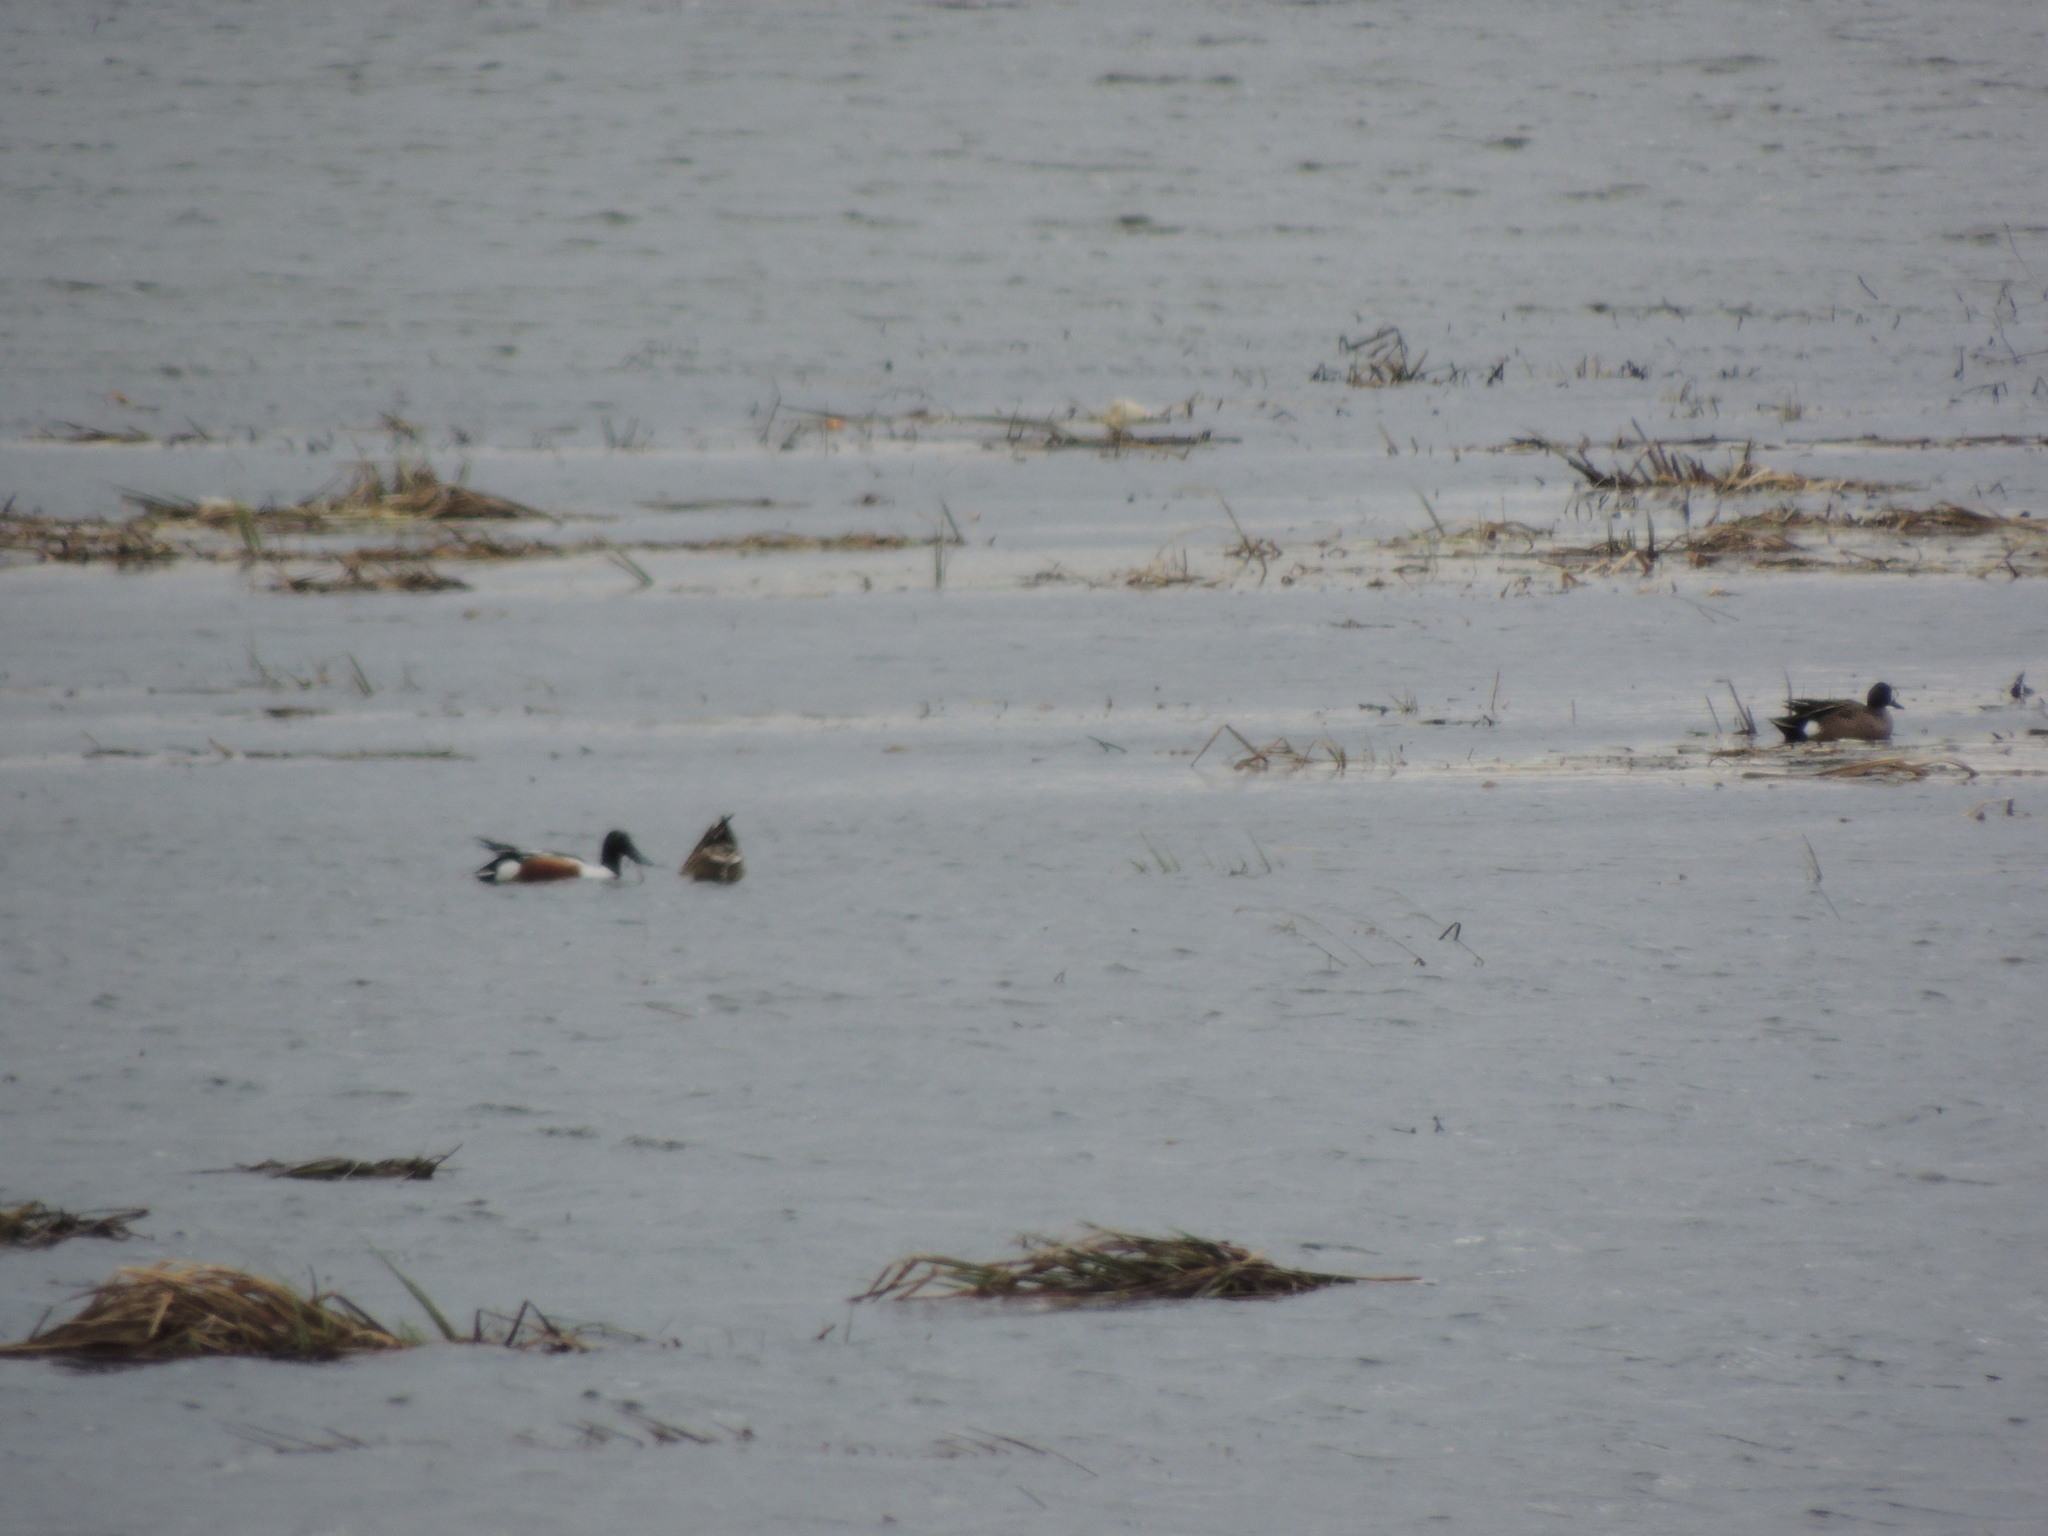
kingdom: Animalia
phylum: Chordata
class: Aves
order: Anseriformes
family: Anatidae
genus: Spatula
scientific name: Spatula clypeata
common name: Northern shoveler
